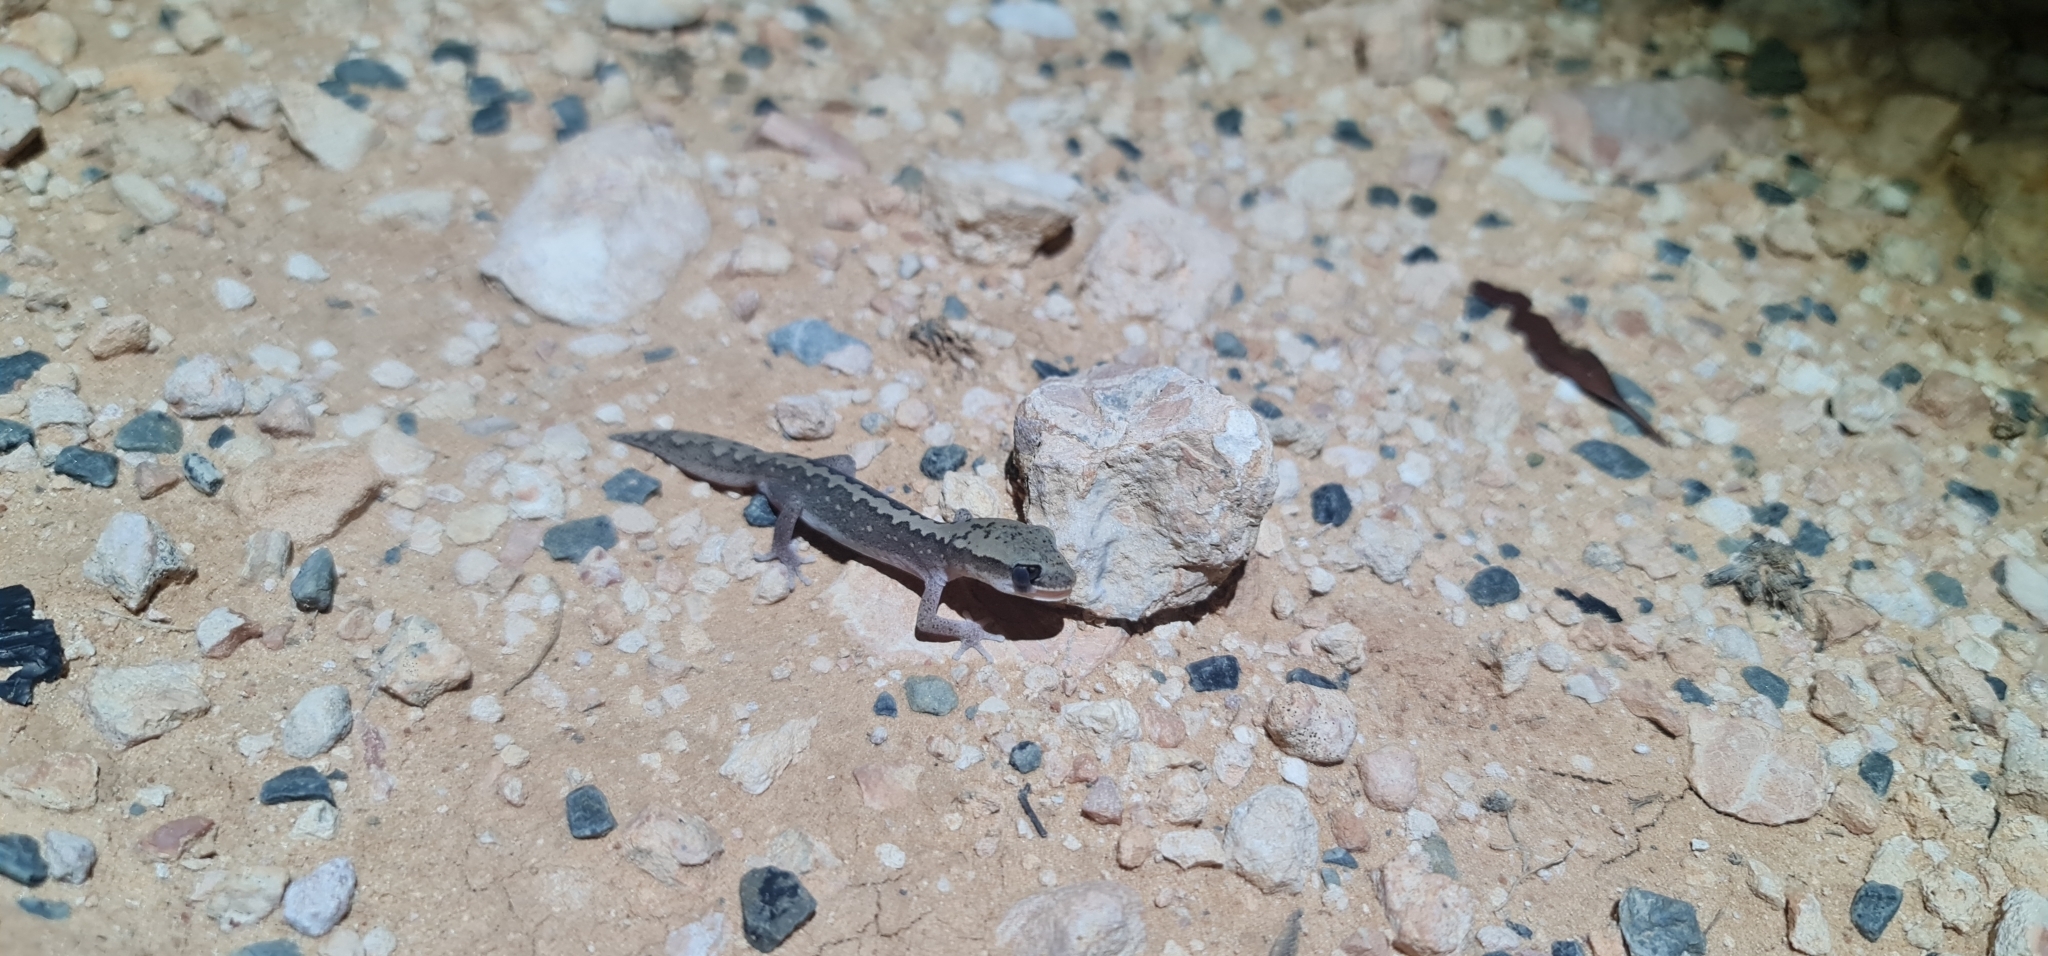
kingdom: Animalia
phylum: Chordata
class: Squamata
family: Diplodactylidae
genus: Diplodactylus
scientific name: Diplodactylus vittatus
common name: Eastern stone gecko
